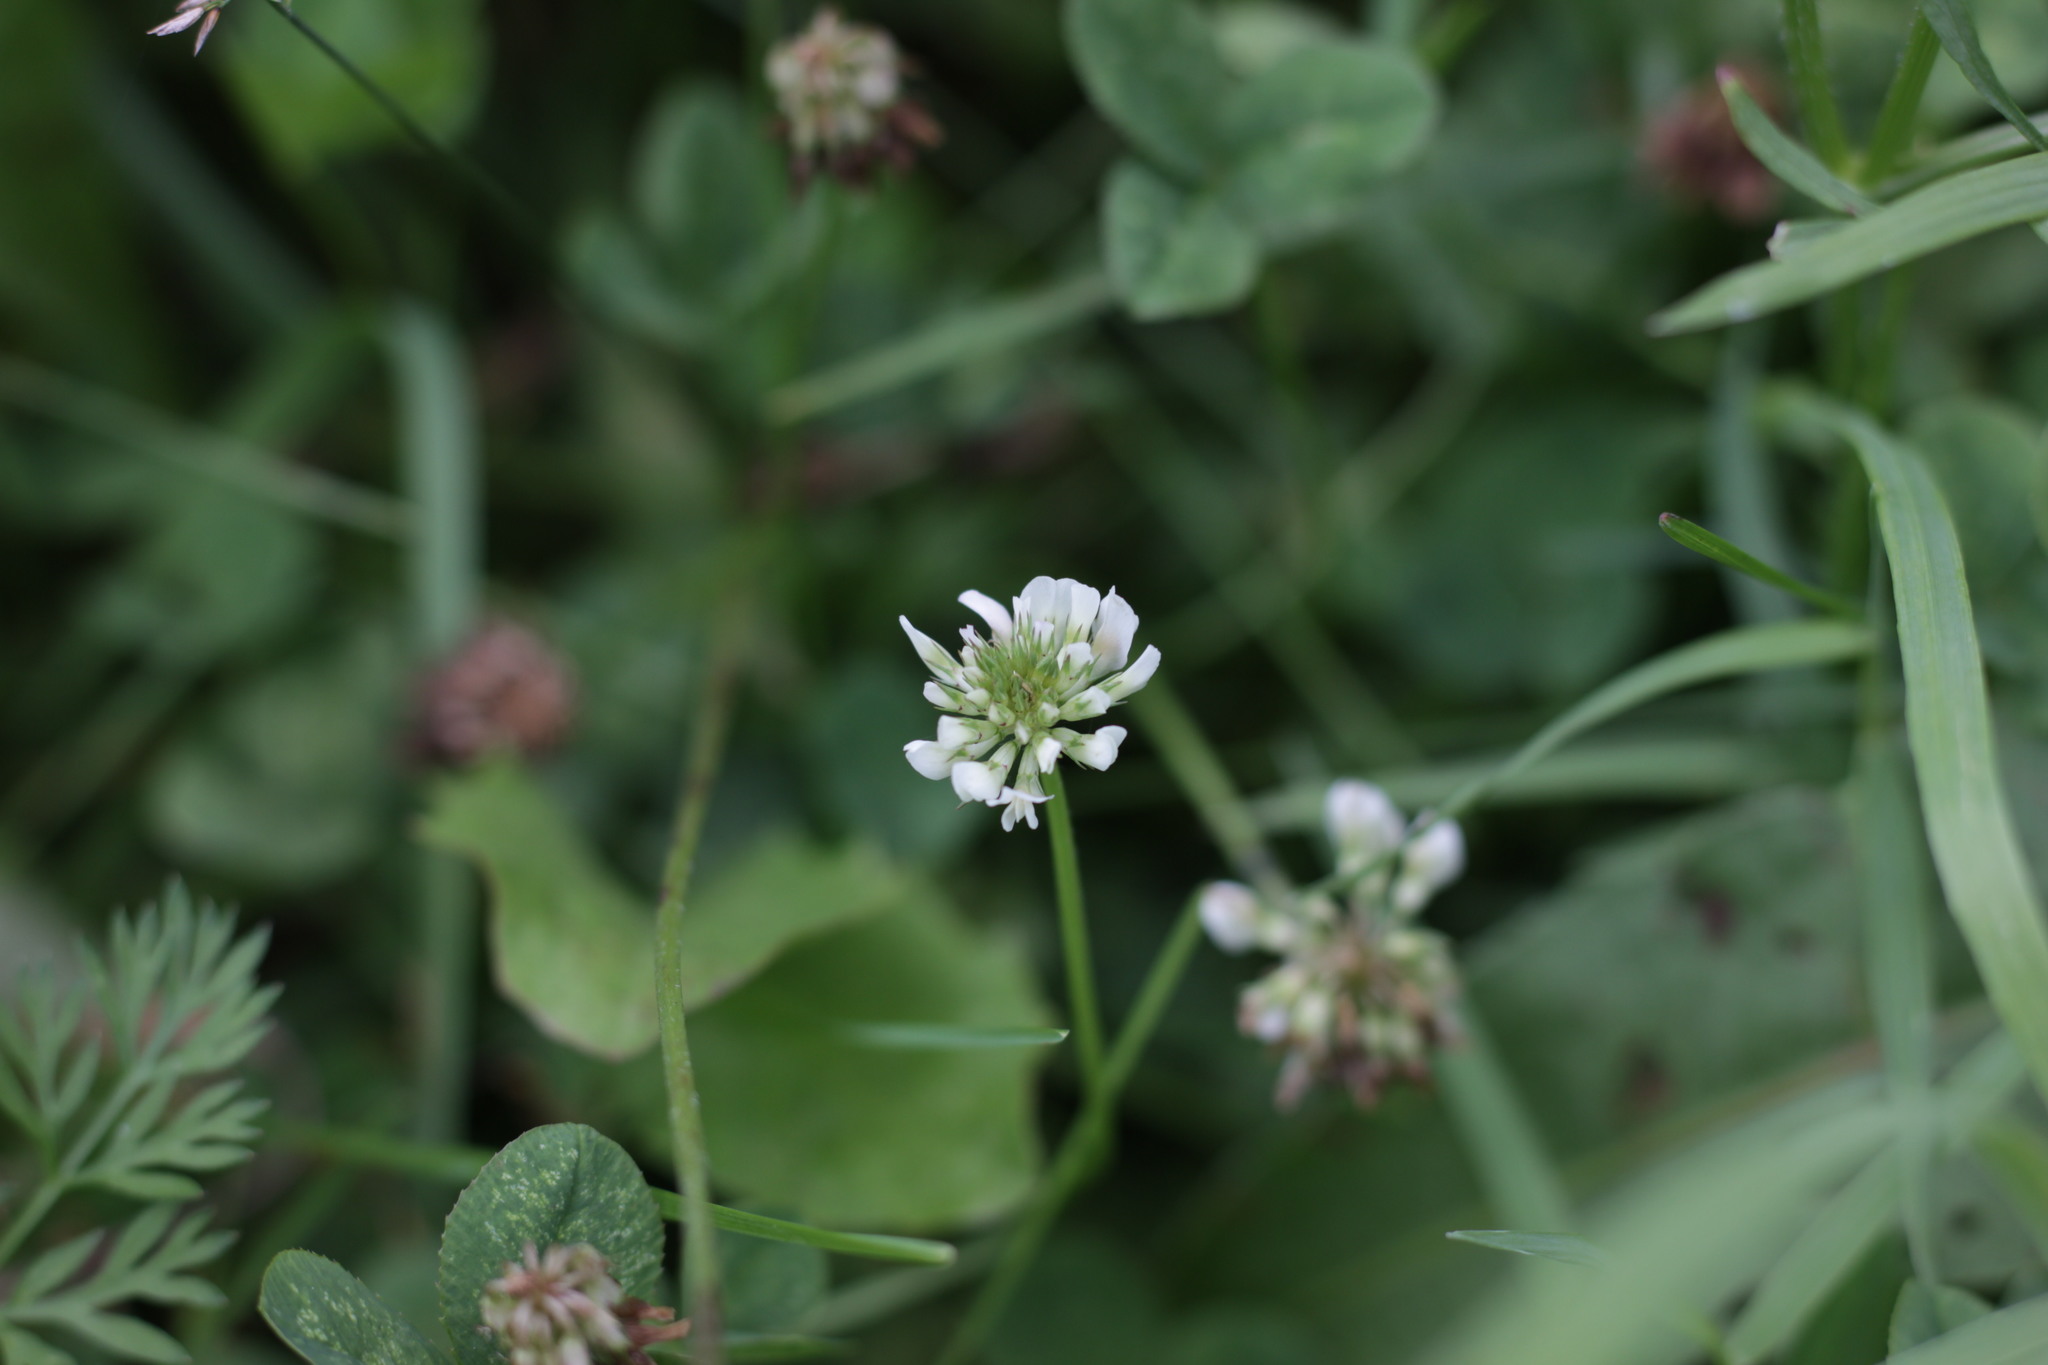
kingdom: Plantae
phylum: Tracheophyta
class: Magnoliopsida
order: Fabales
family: Fabaceae
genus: Trifolium
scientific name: Trifolium repens
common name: White clover
